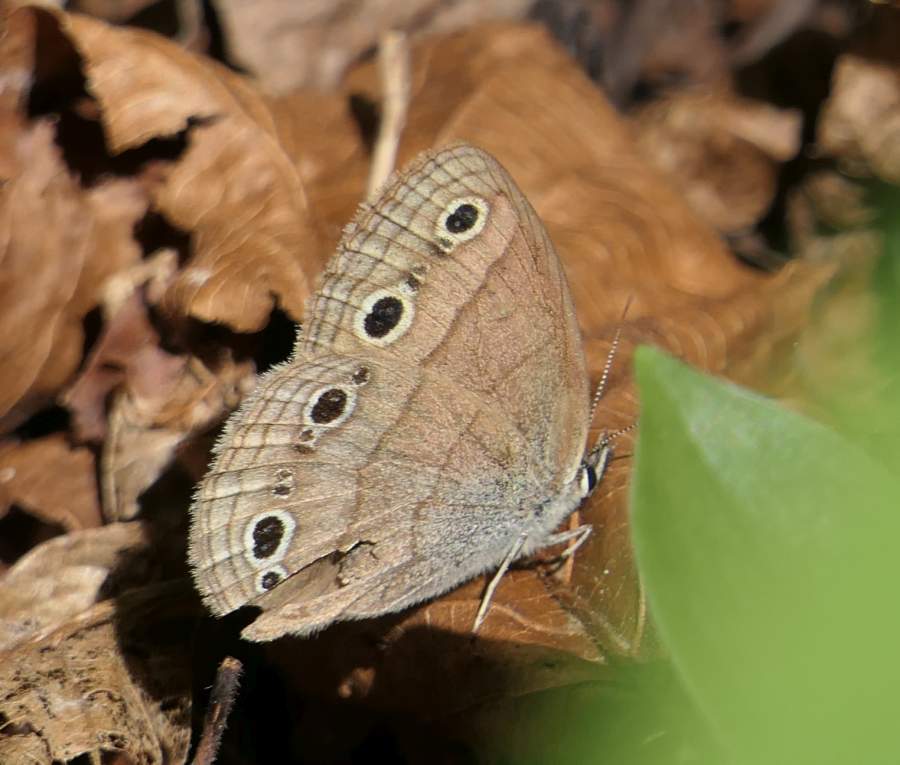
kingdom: Animalia
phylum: Arthropoda
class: Insecta
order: Lepidoptera
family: Nymphalidae
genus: Euptychia
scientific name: Euptychia cymela
